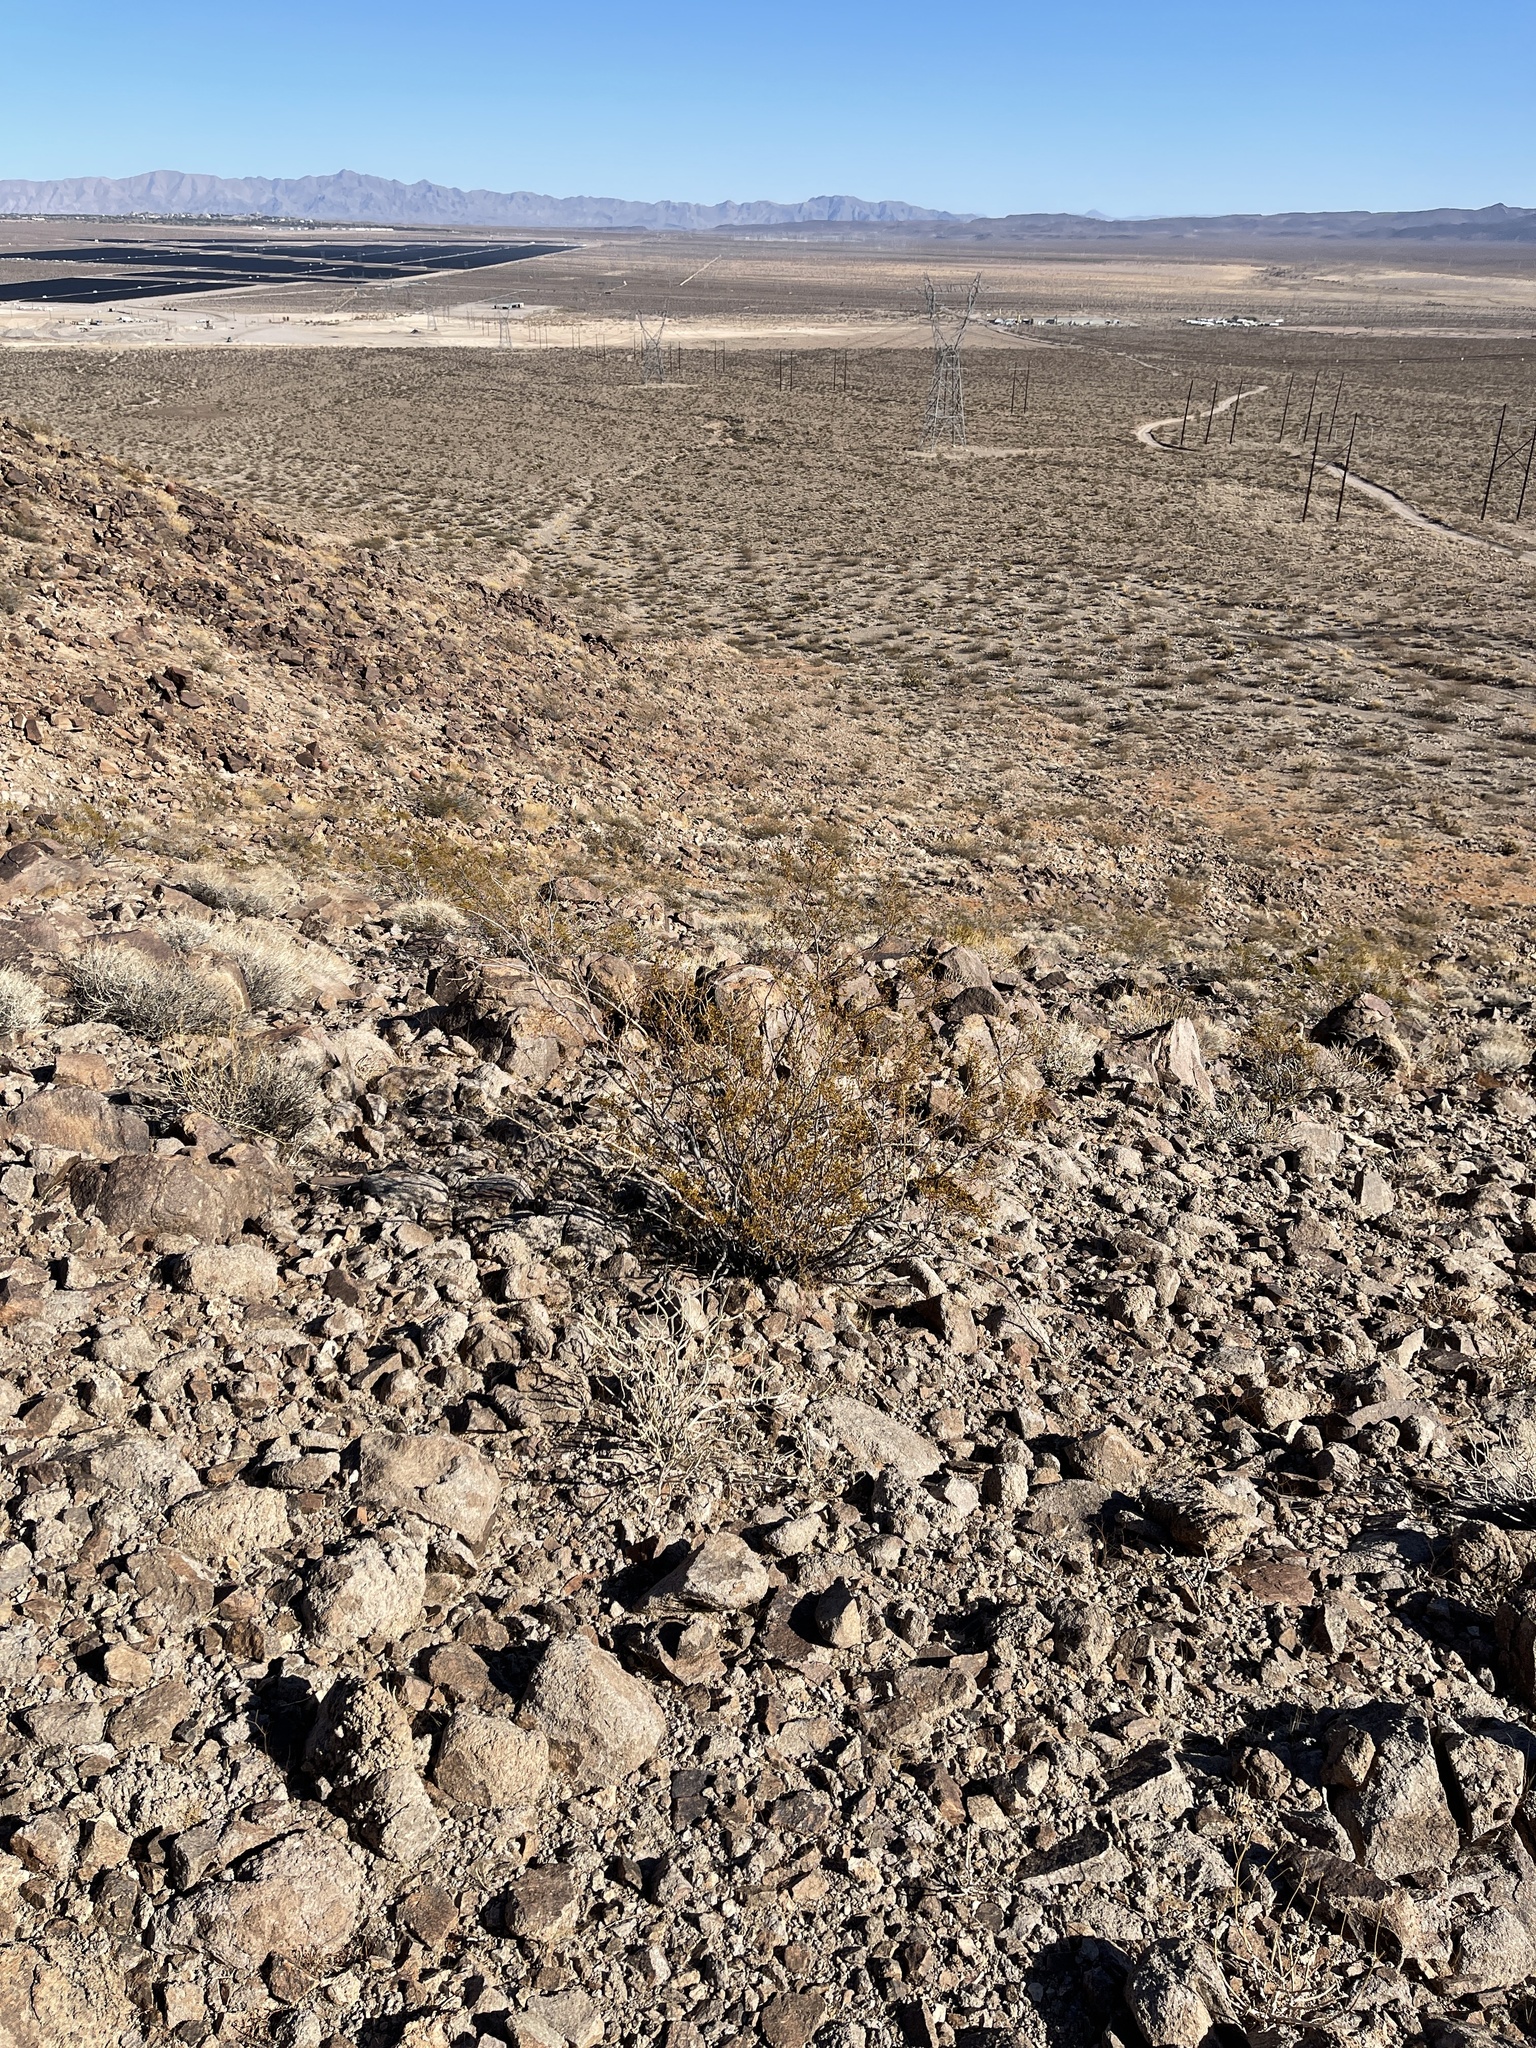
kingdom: Plantae
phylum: Tracheophyta
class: Magnoliopsida
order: Zygophyllales
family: Zygophyllaceae
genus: Larrea
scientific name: Larrea tridentata
